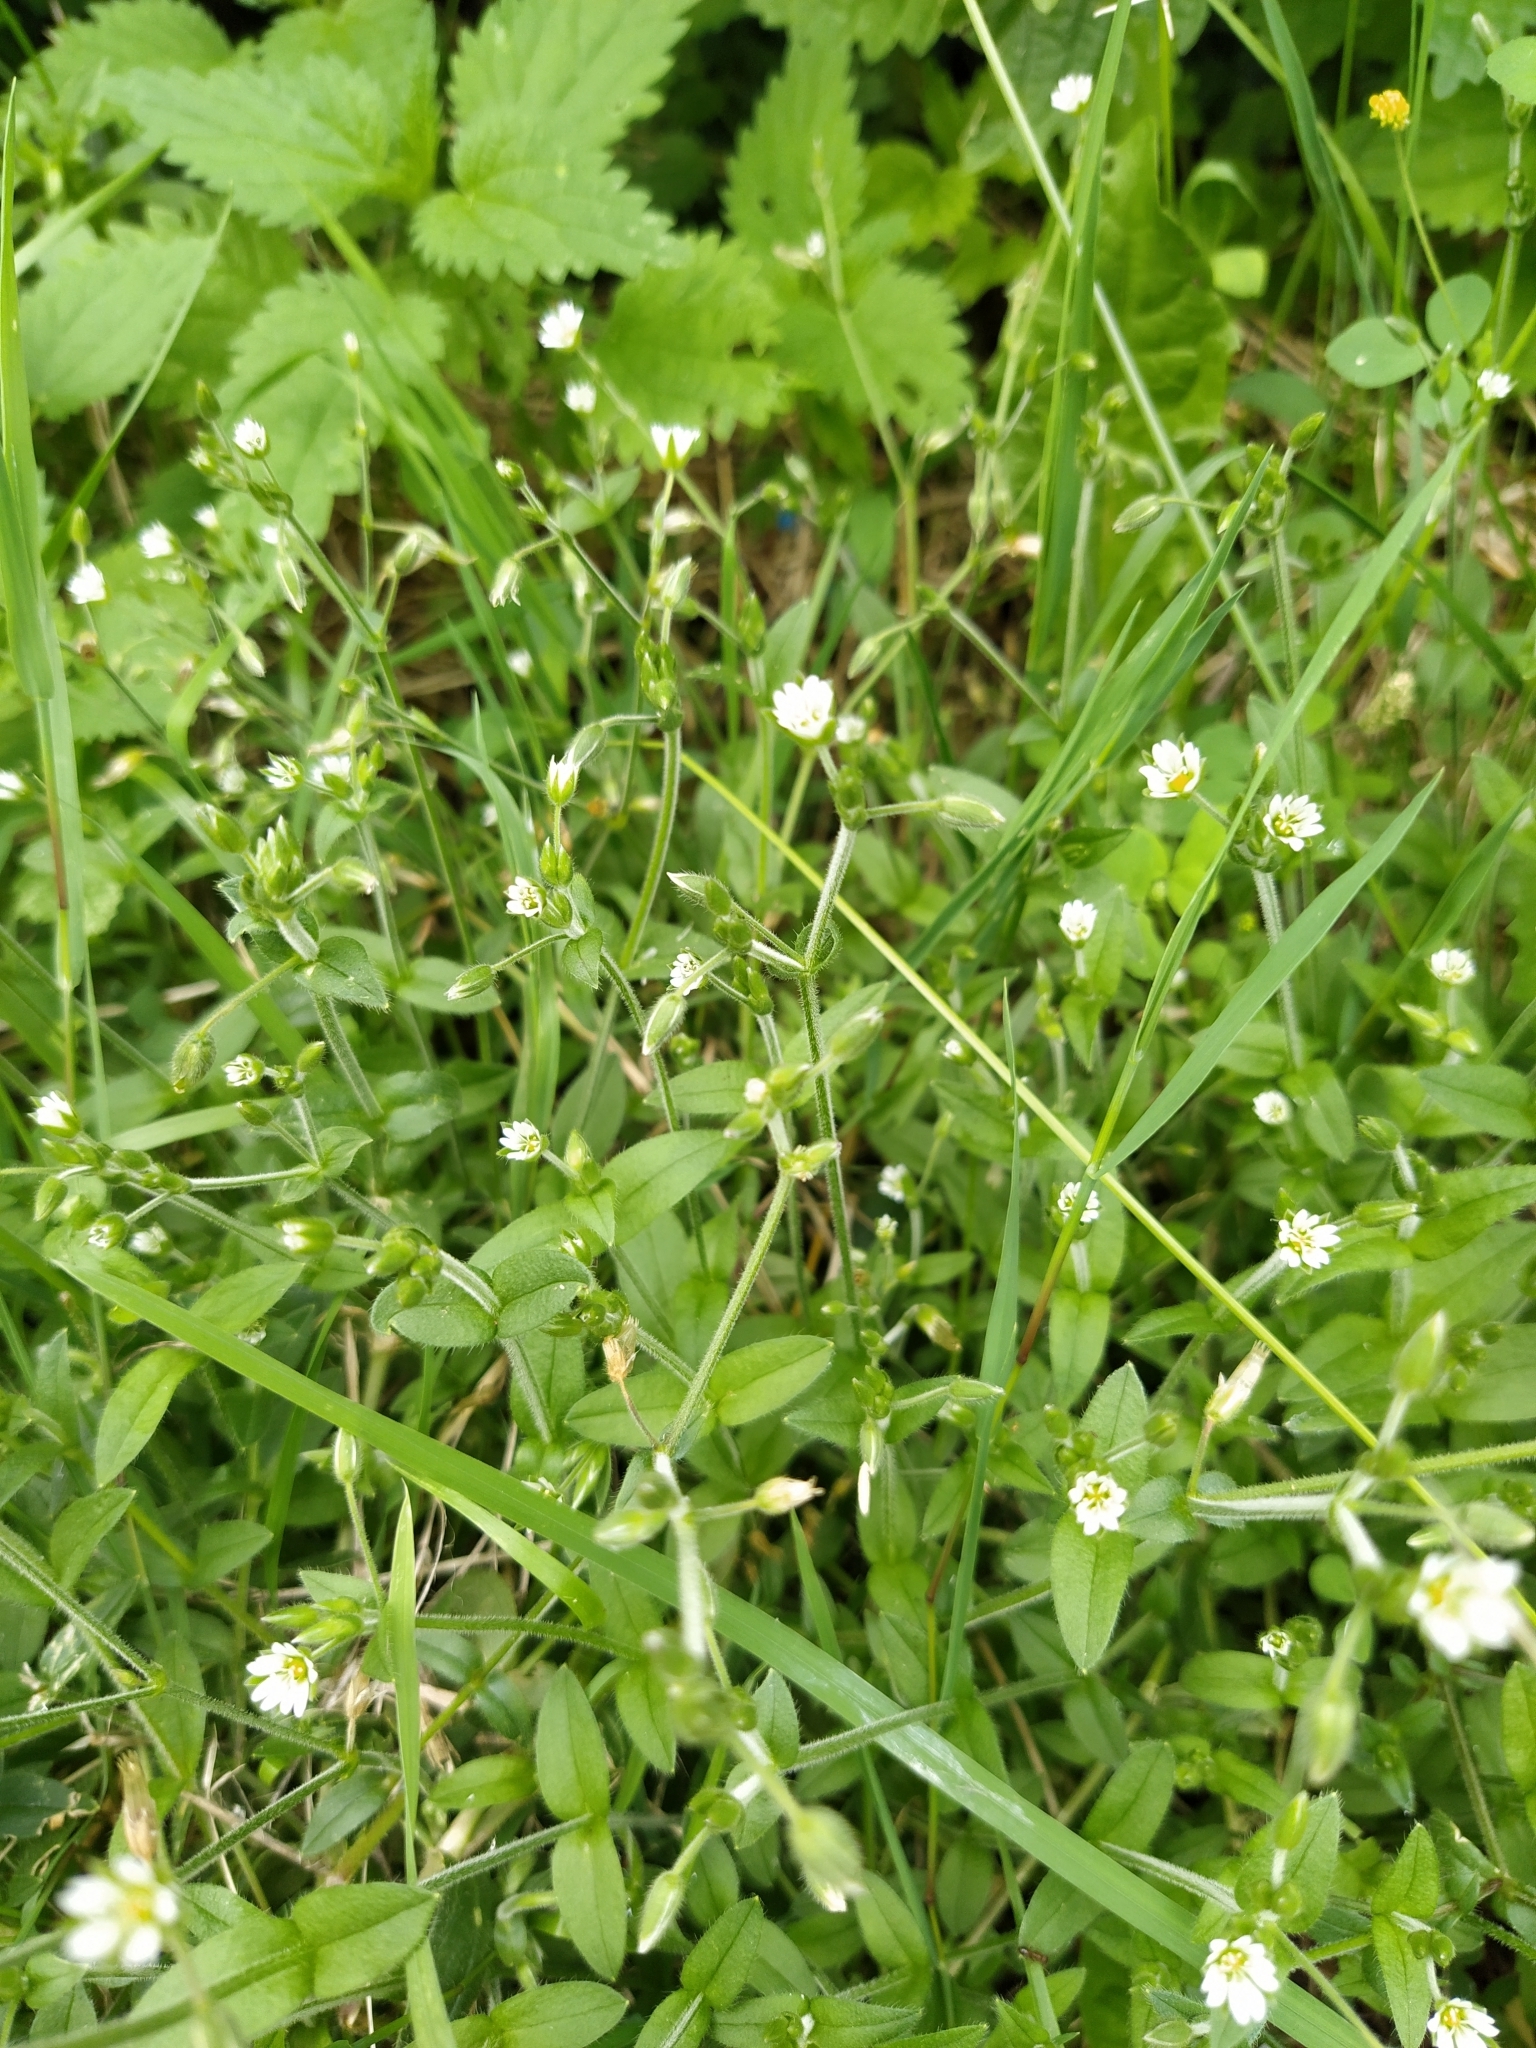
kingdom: Plantae
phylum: Tracheophyta
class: Magnoliopsida
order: Caryophyllales
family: Caryophyllaceae
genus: Cerastium
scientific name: Cerastium holosteoides
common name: Big chickweed
